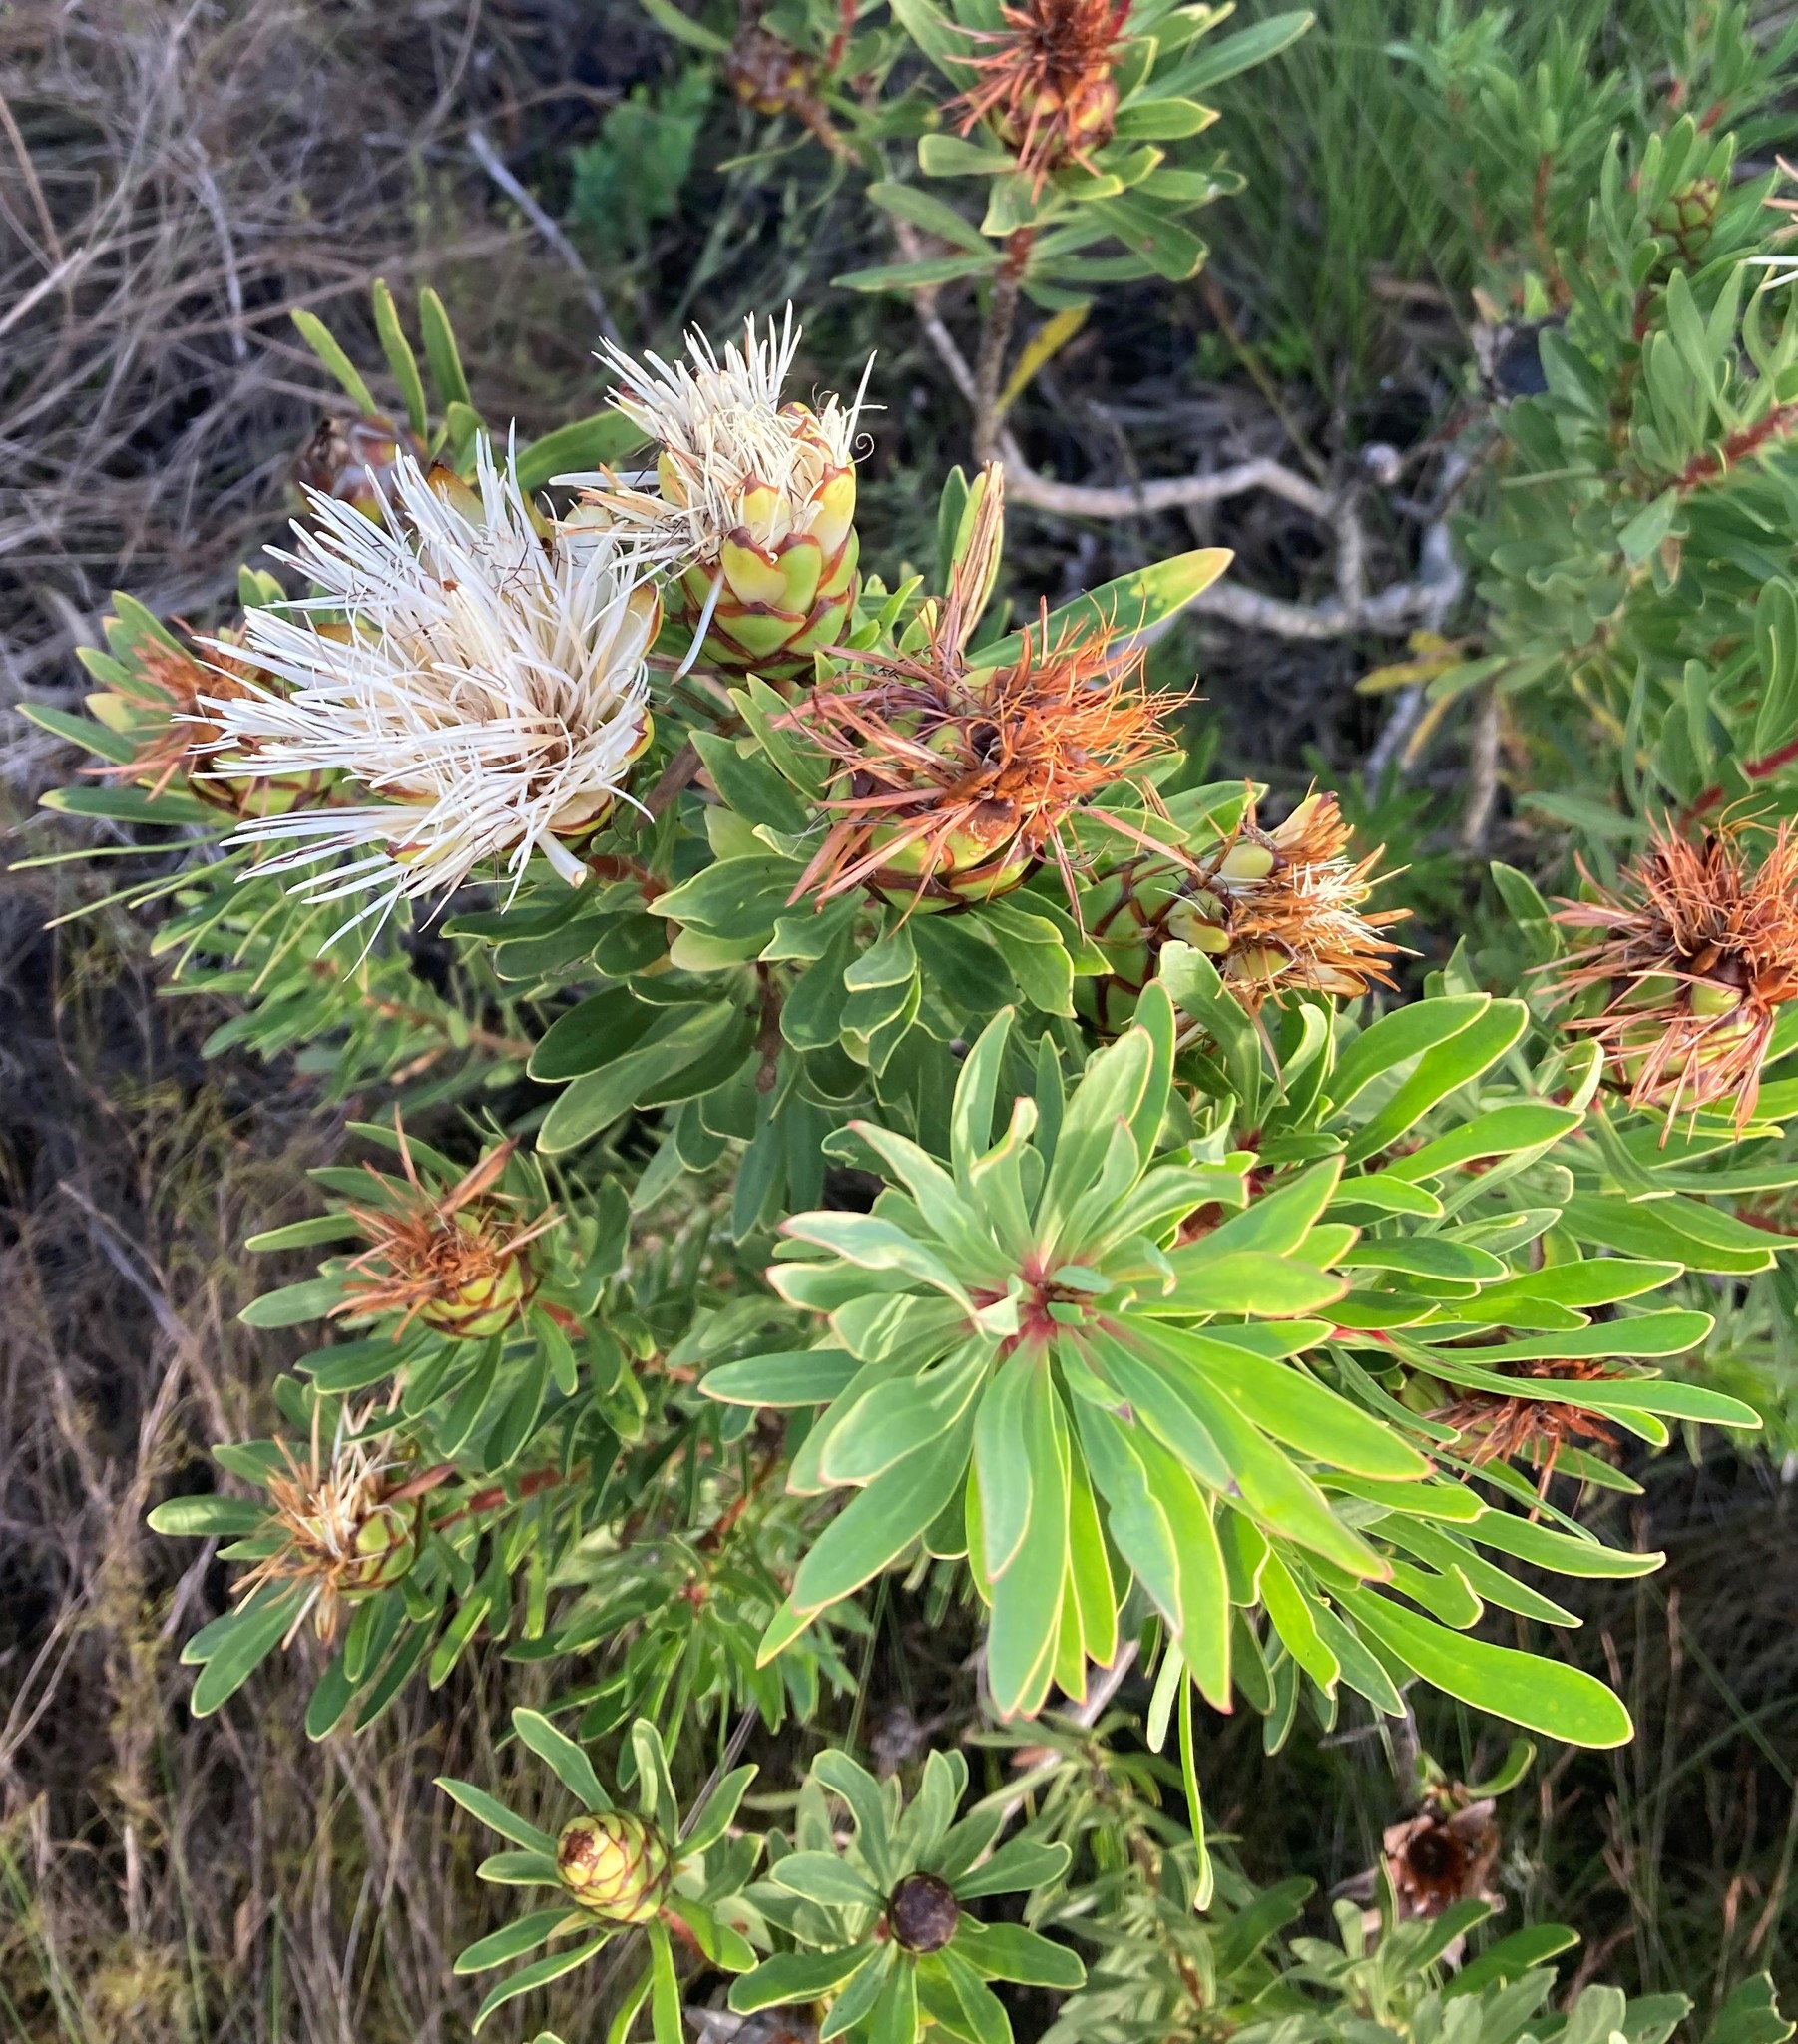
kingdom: Plantae
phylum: Tracheophyta
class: Magnoliopsida
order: Proteales
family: Proteaceae
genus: Protea
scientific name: Protea lanceolata
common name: Lance-leaved protea
